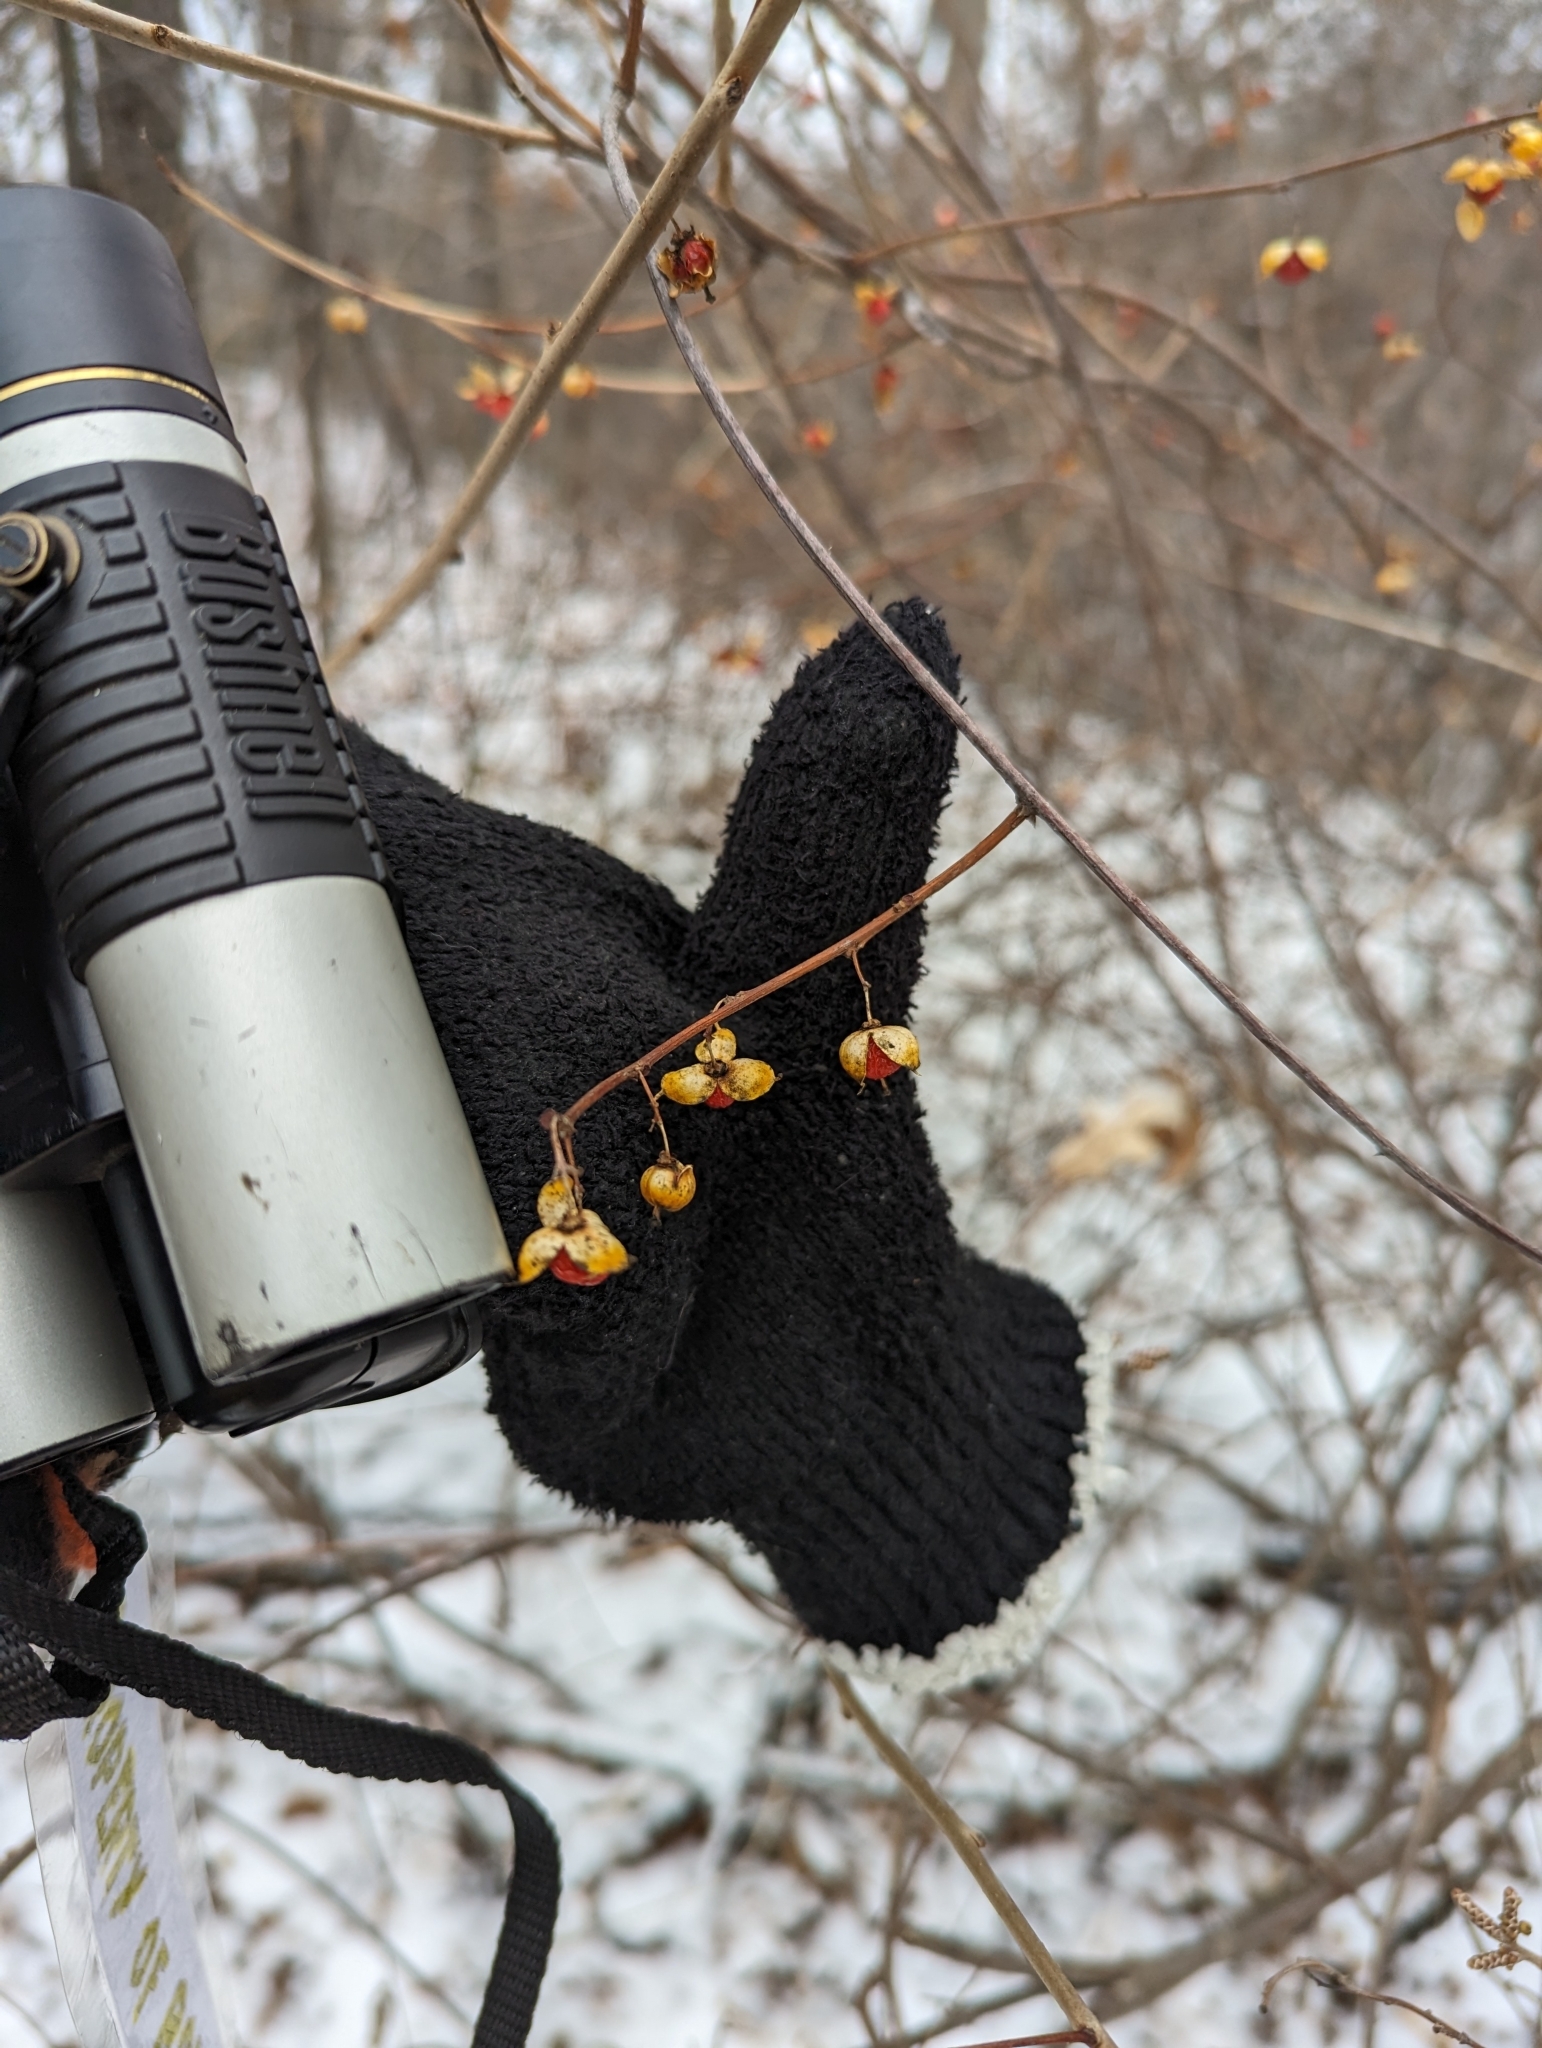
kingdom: Plantae
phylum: Tracheophyta
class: Magnoliopsida
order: Celastrales
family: Celastraceae
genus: Celastrus
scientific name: Celastrus orbiculatus
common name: Oriental bittersweet
